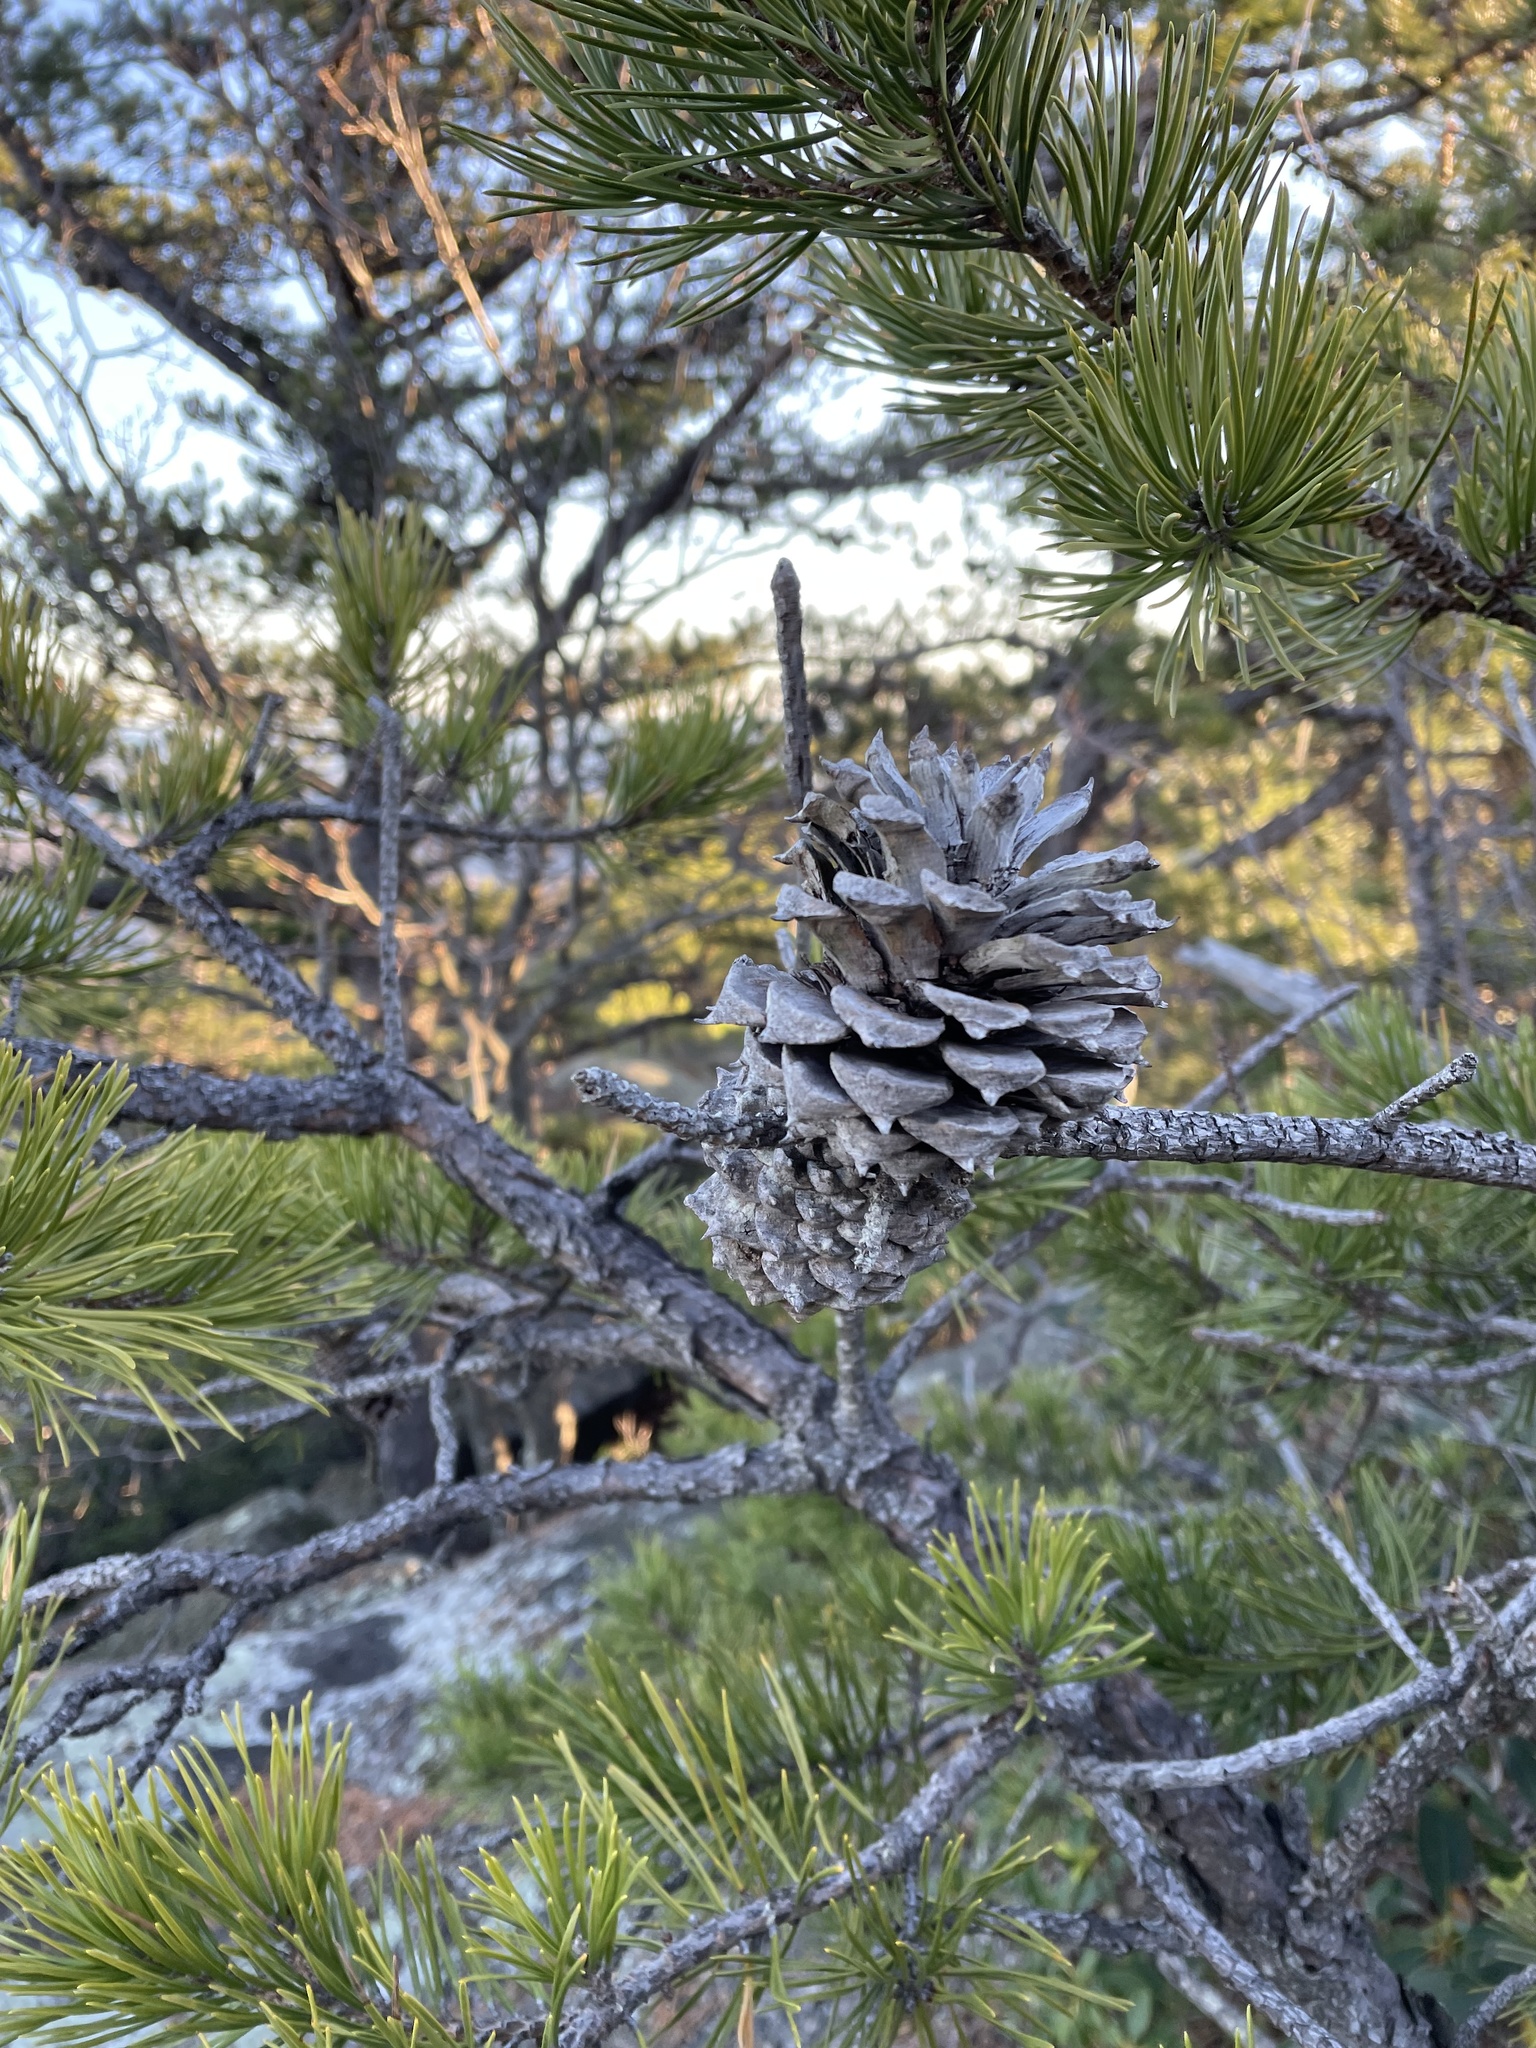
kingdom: Plantae
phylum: Tracheophyta
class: Pinopsida
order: Pinales
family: Pinaceae
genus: Pinus
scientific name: Pinus pungens
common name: Hickory pine
